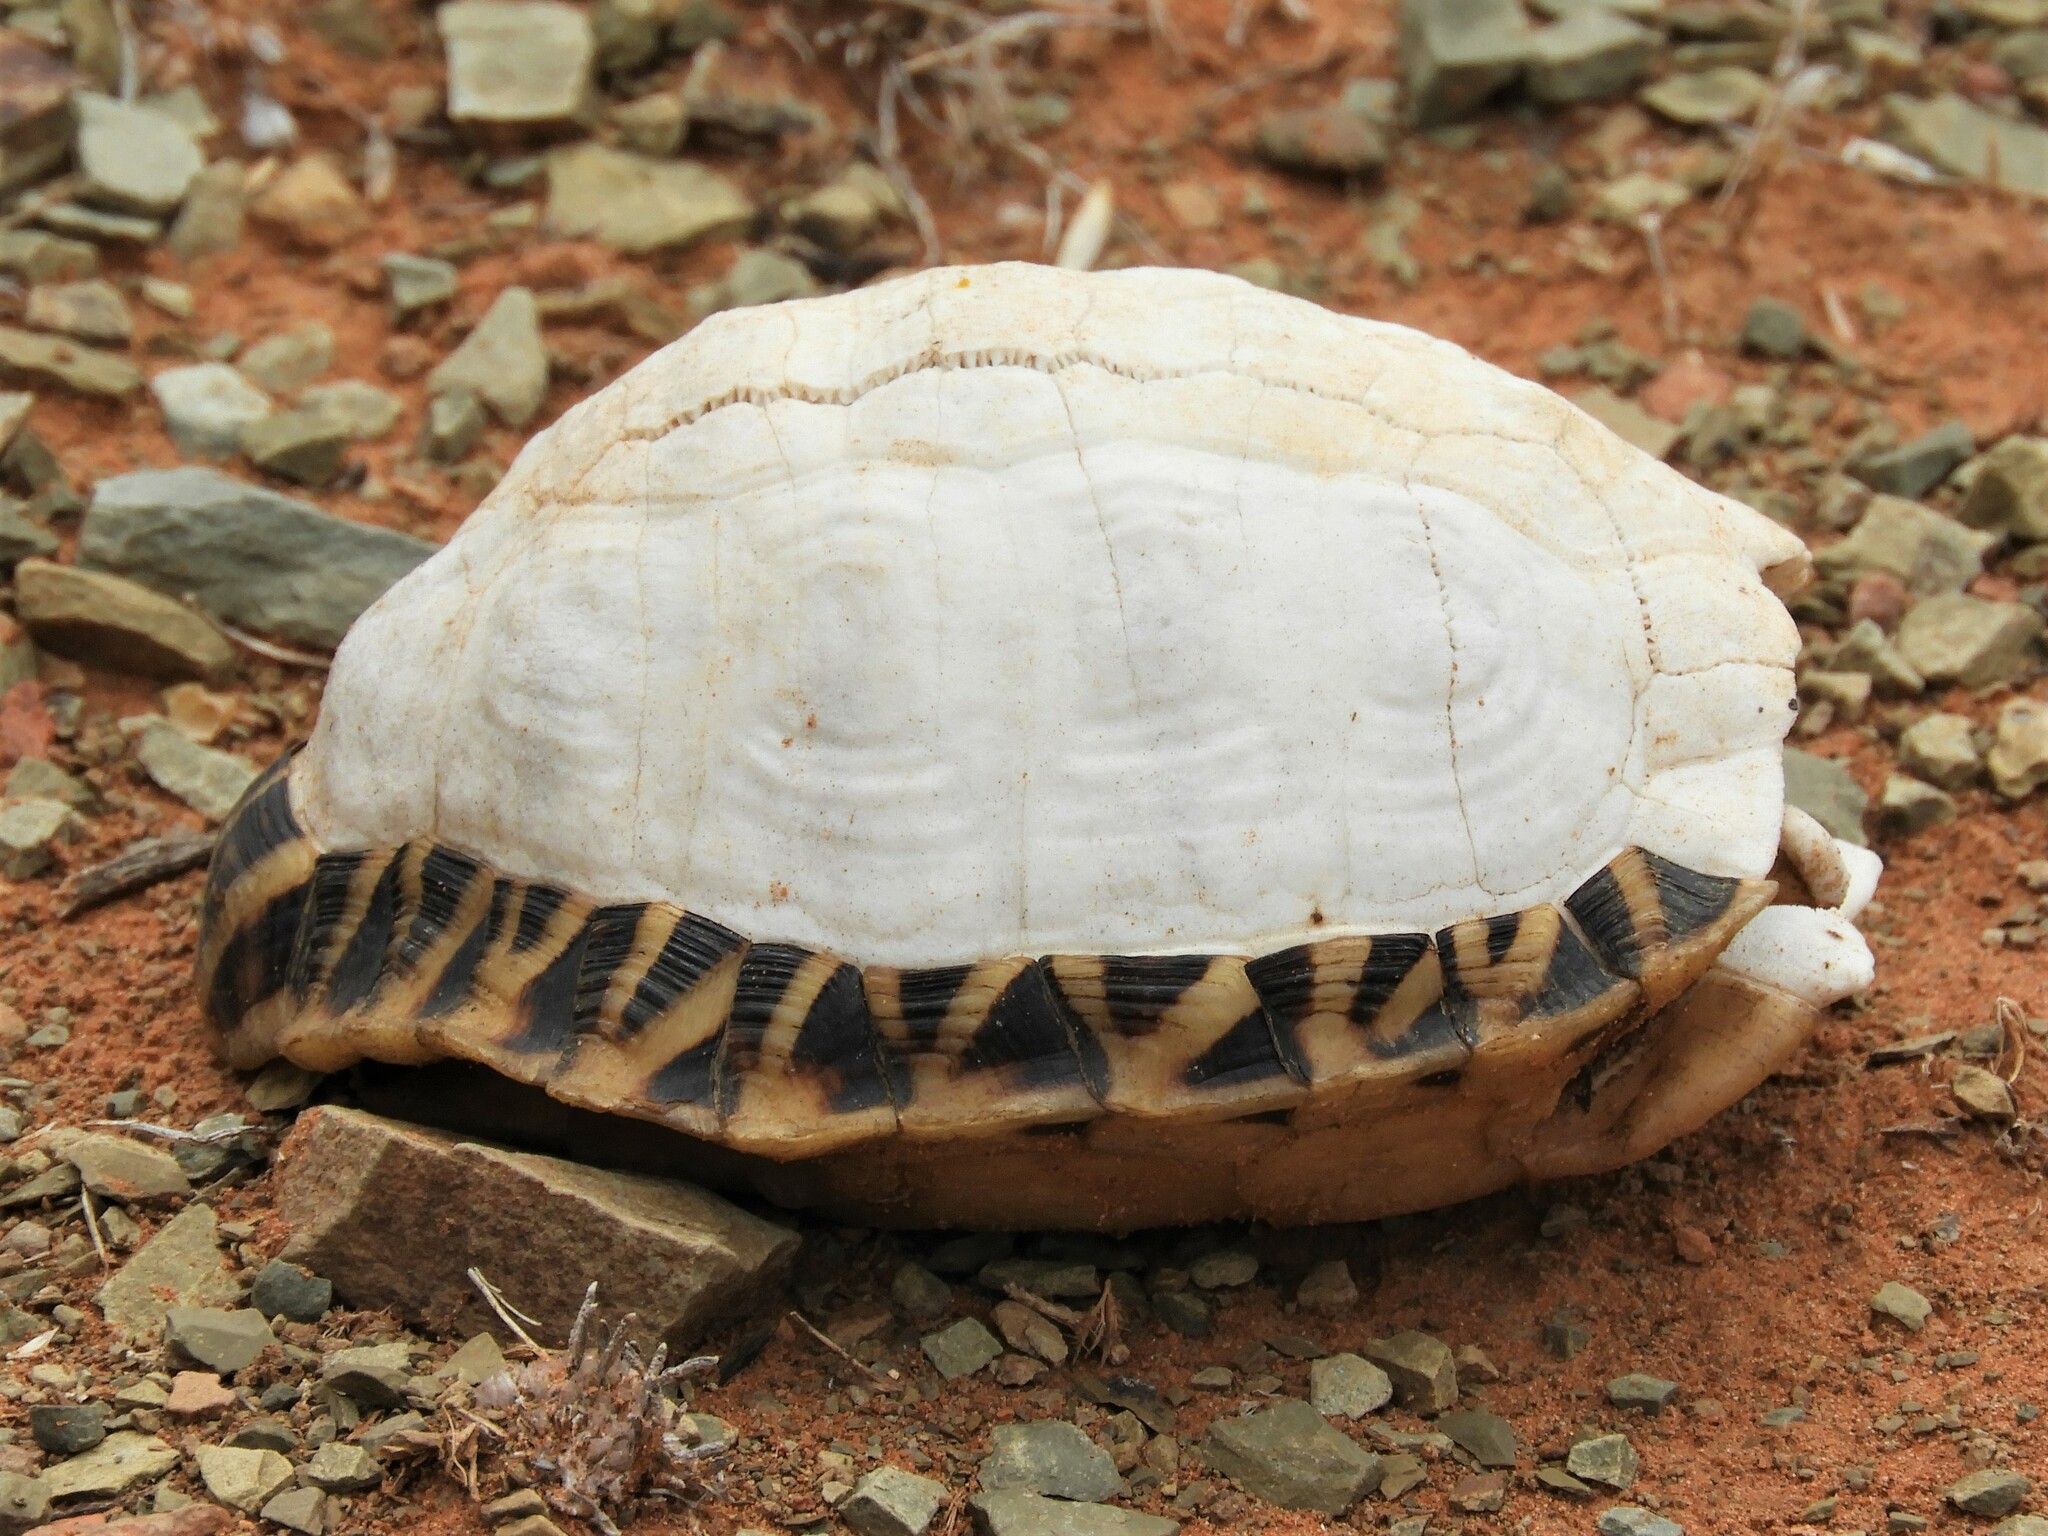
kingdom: Animalia
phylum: Chordata
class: Testudines
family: Testudinidae
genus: Psammobates
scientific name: Psammobates tentorius
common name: Tent tortoise
